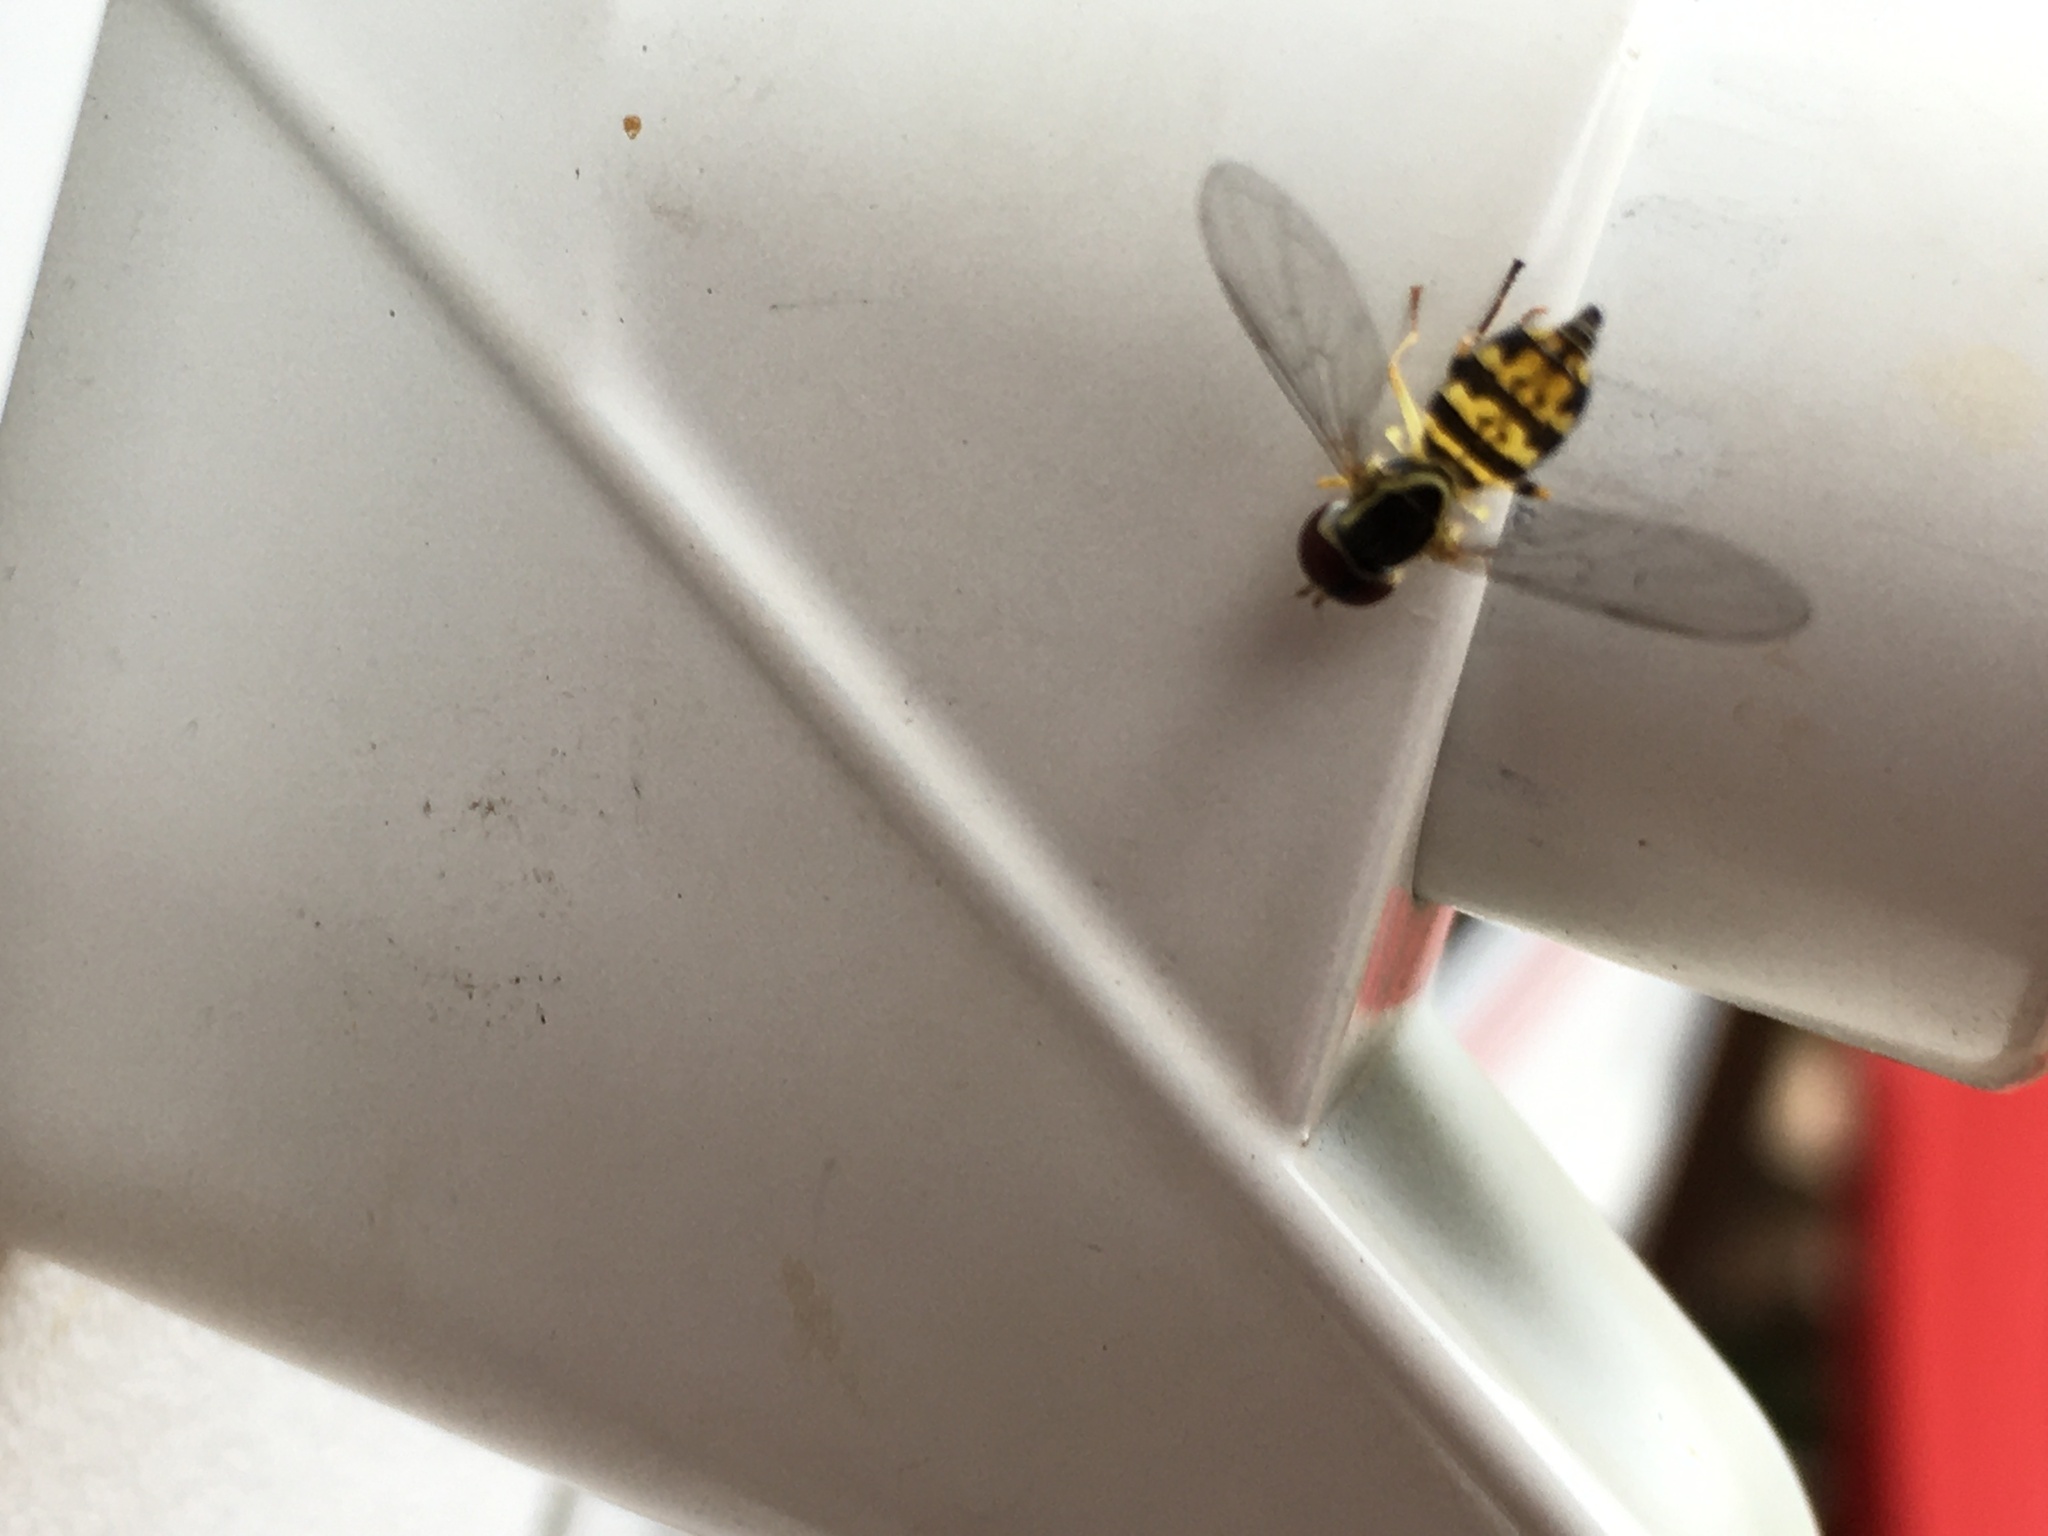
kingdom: Animalia
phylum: Arthropoda
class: Insecta
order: Diptera
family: Syrphidae
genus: Toxomerus
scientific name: Toxomerus geminatus
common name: Eastern calligrapher
